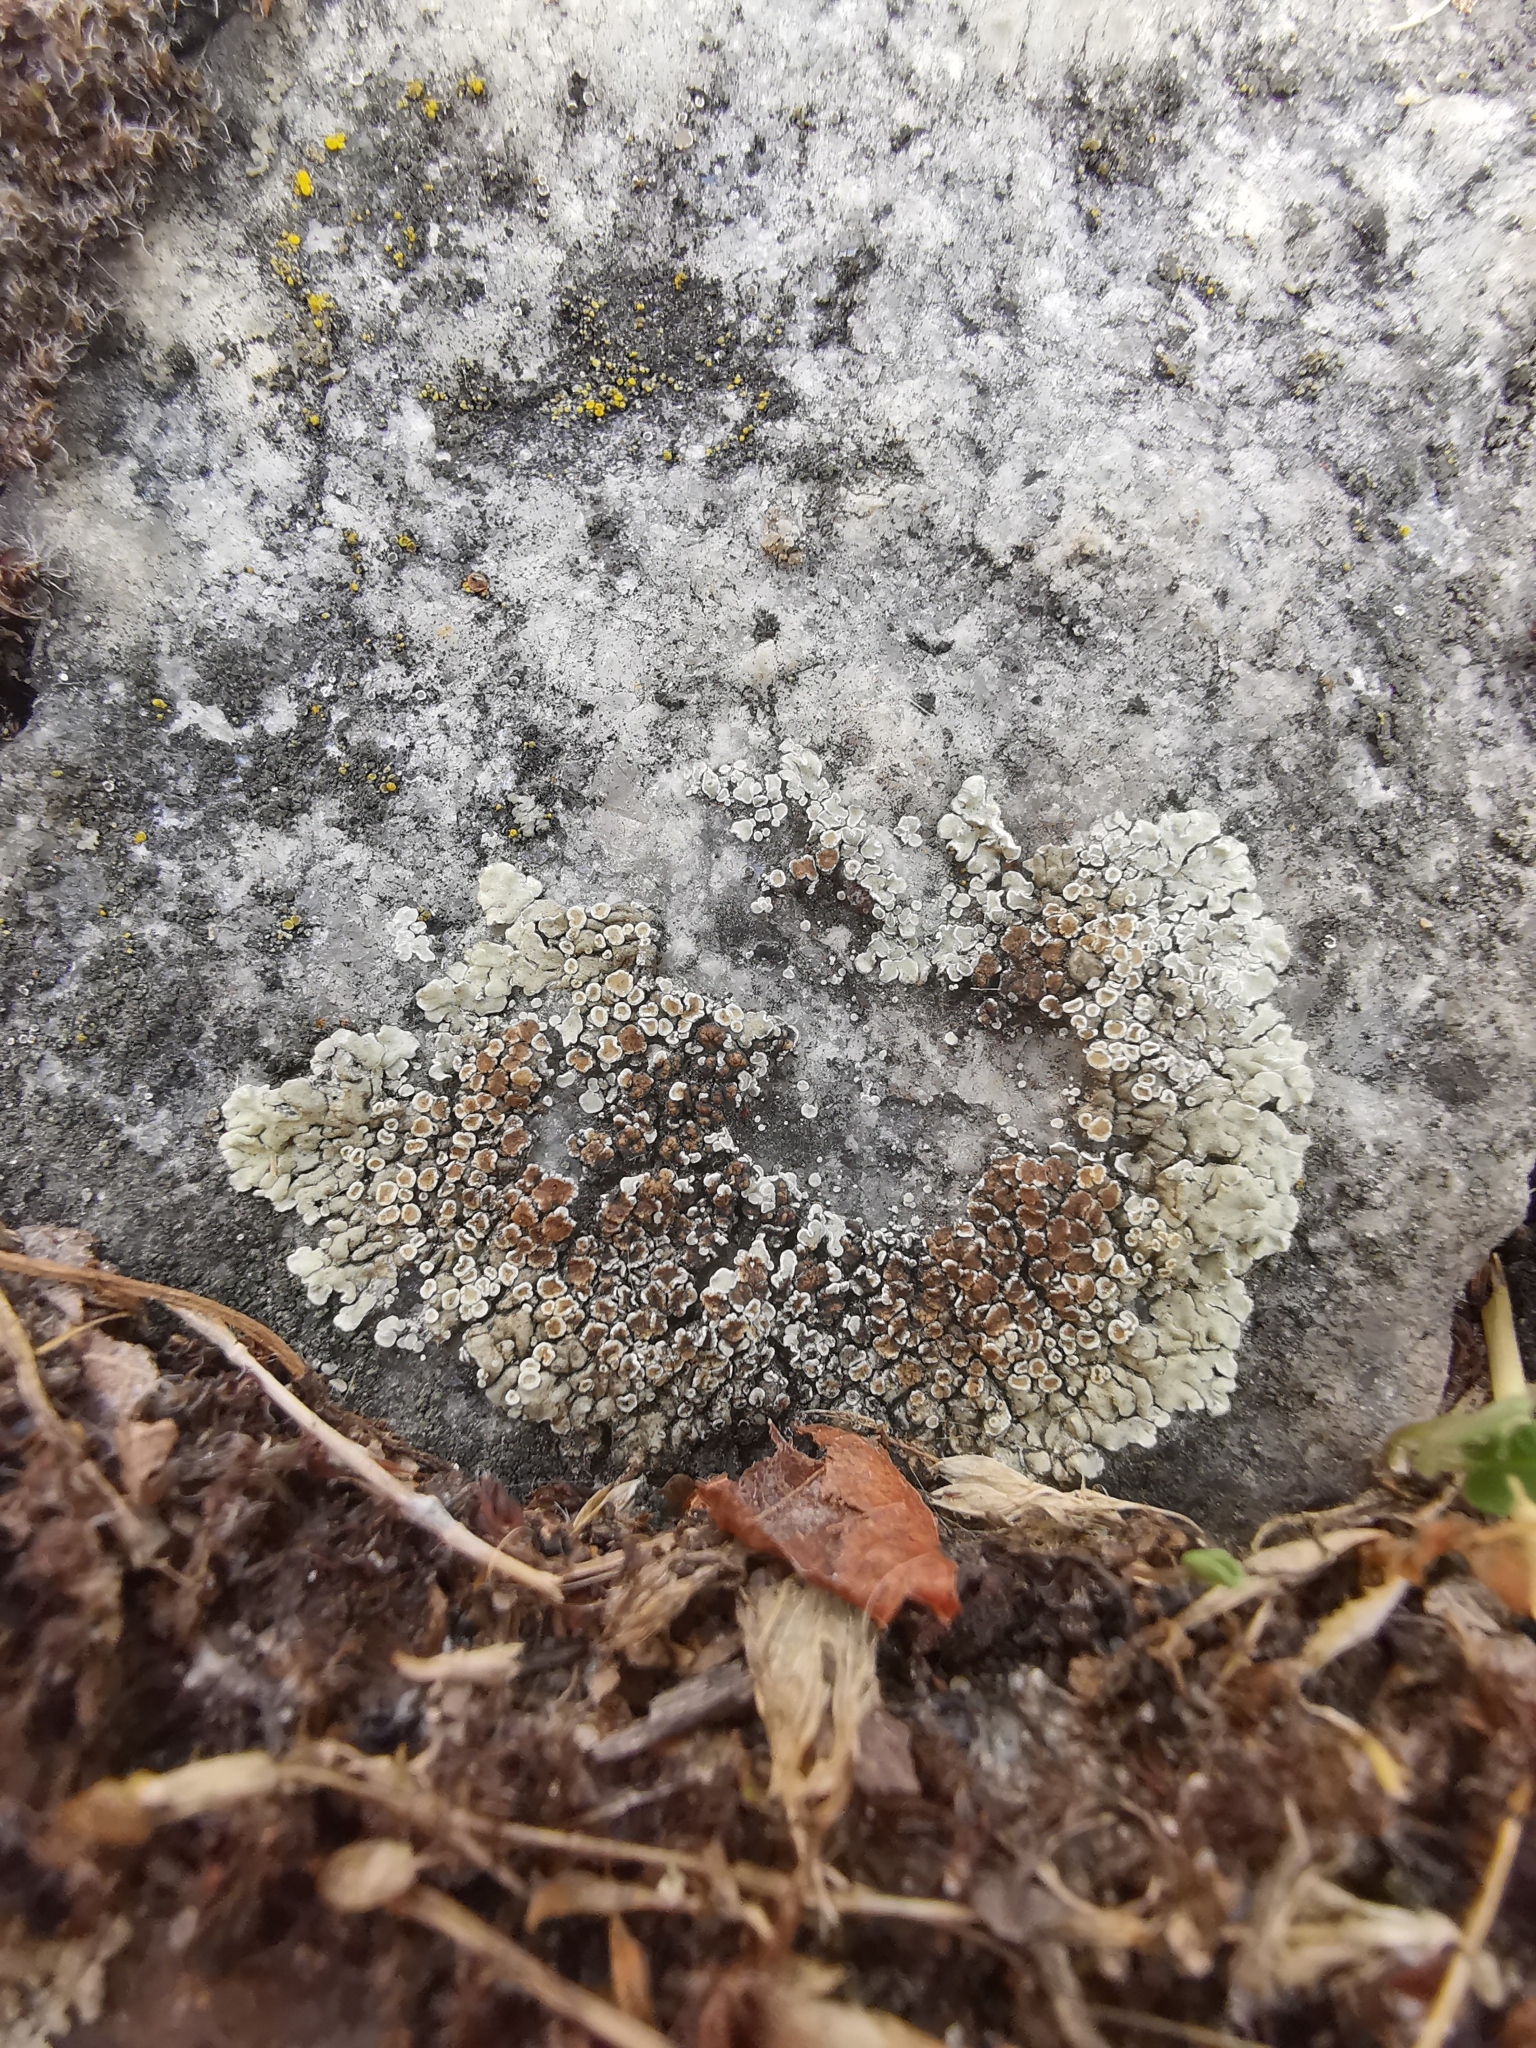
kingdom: Fungi
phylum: Ascomycota
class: Lecanoromycetes
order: Lecanorales
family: Lecanoraceae
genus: Protoparmeliopsis
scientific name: Protoparmeliopsis muralis
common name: Stonewall rim lichen
